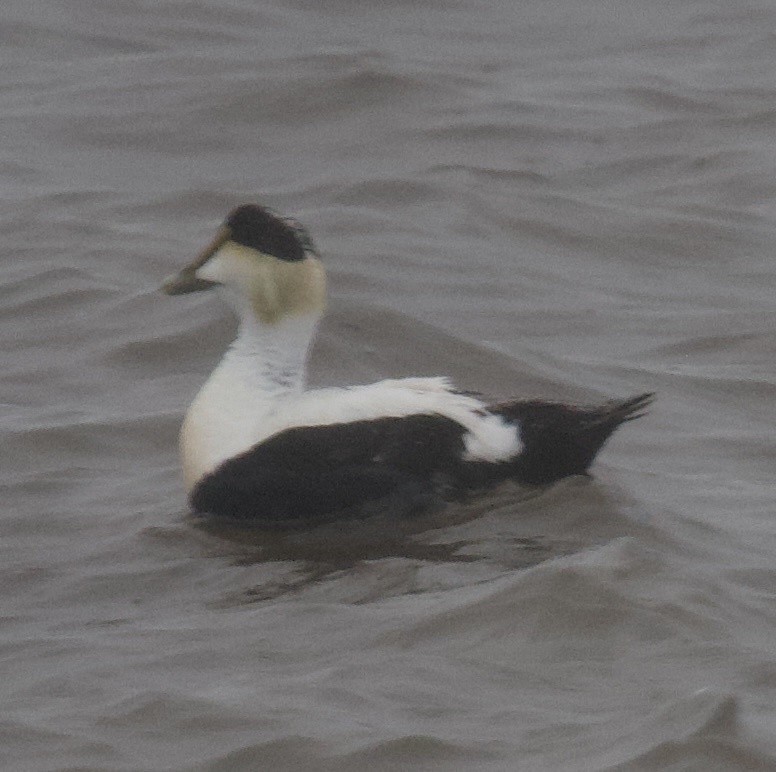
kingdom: Animalia
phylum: Chordata
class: Aves
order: Anseriformes
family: Anatidae
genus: Somateria
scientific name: Somateria mollissima
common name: Common eider
